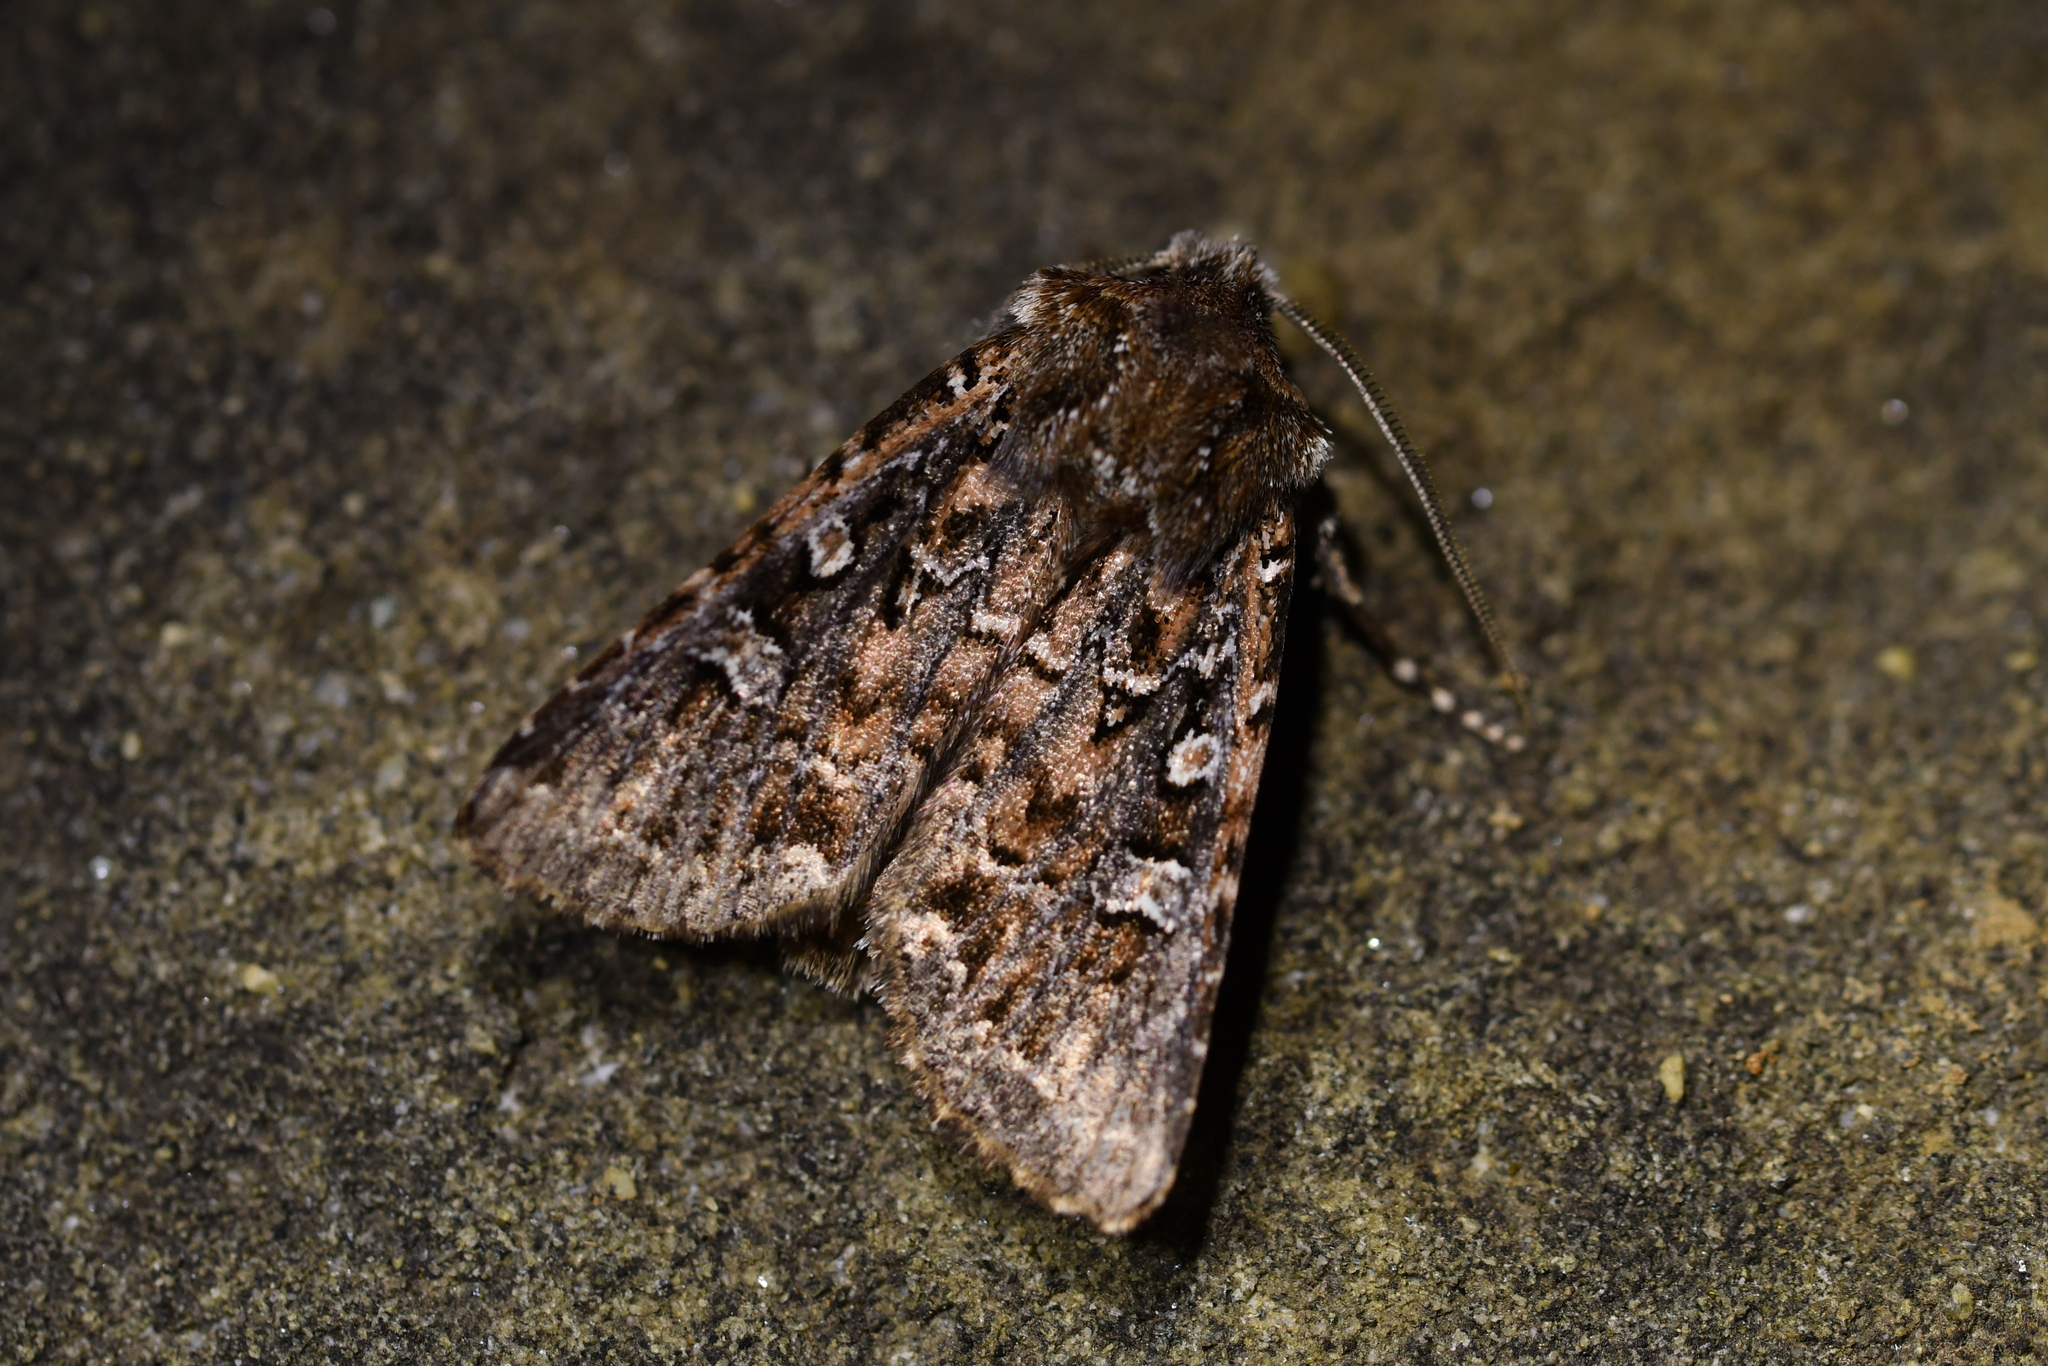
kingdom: Animalia
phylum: Arthropoda
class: Insecta
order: Lepidoptera
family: Noctuidae
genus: Ichneutica
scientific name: Ichneutica lithias
